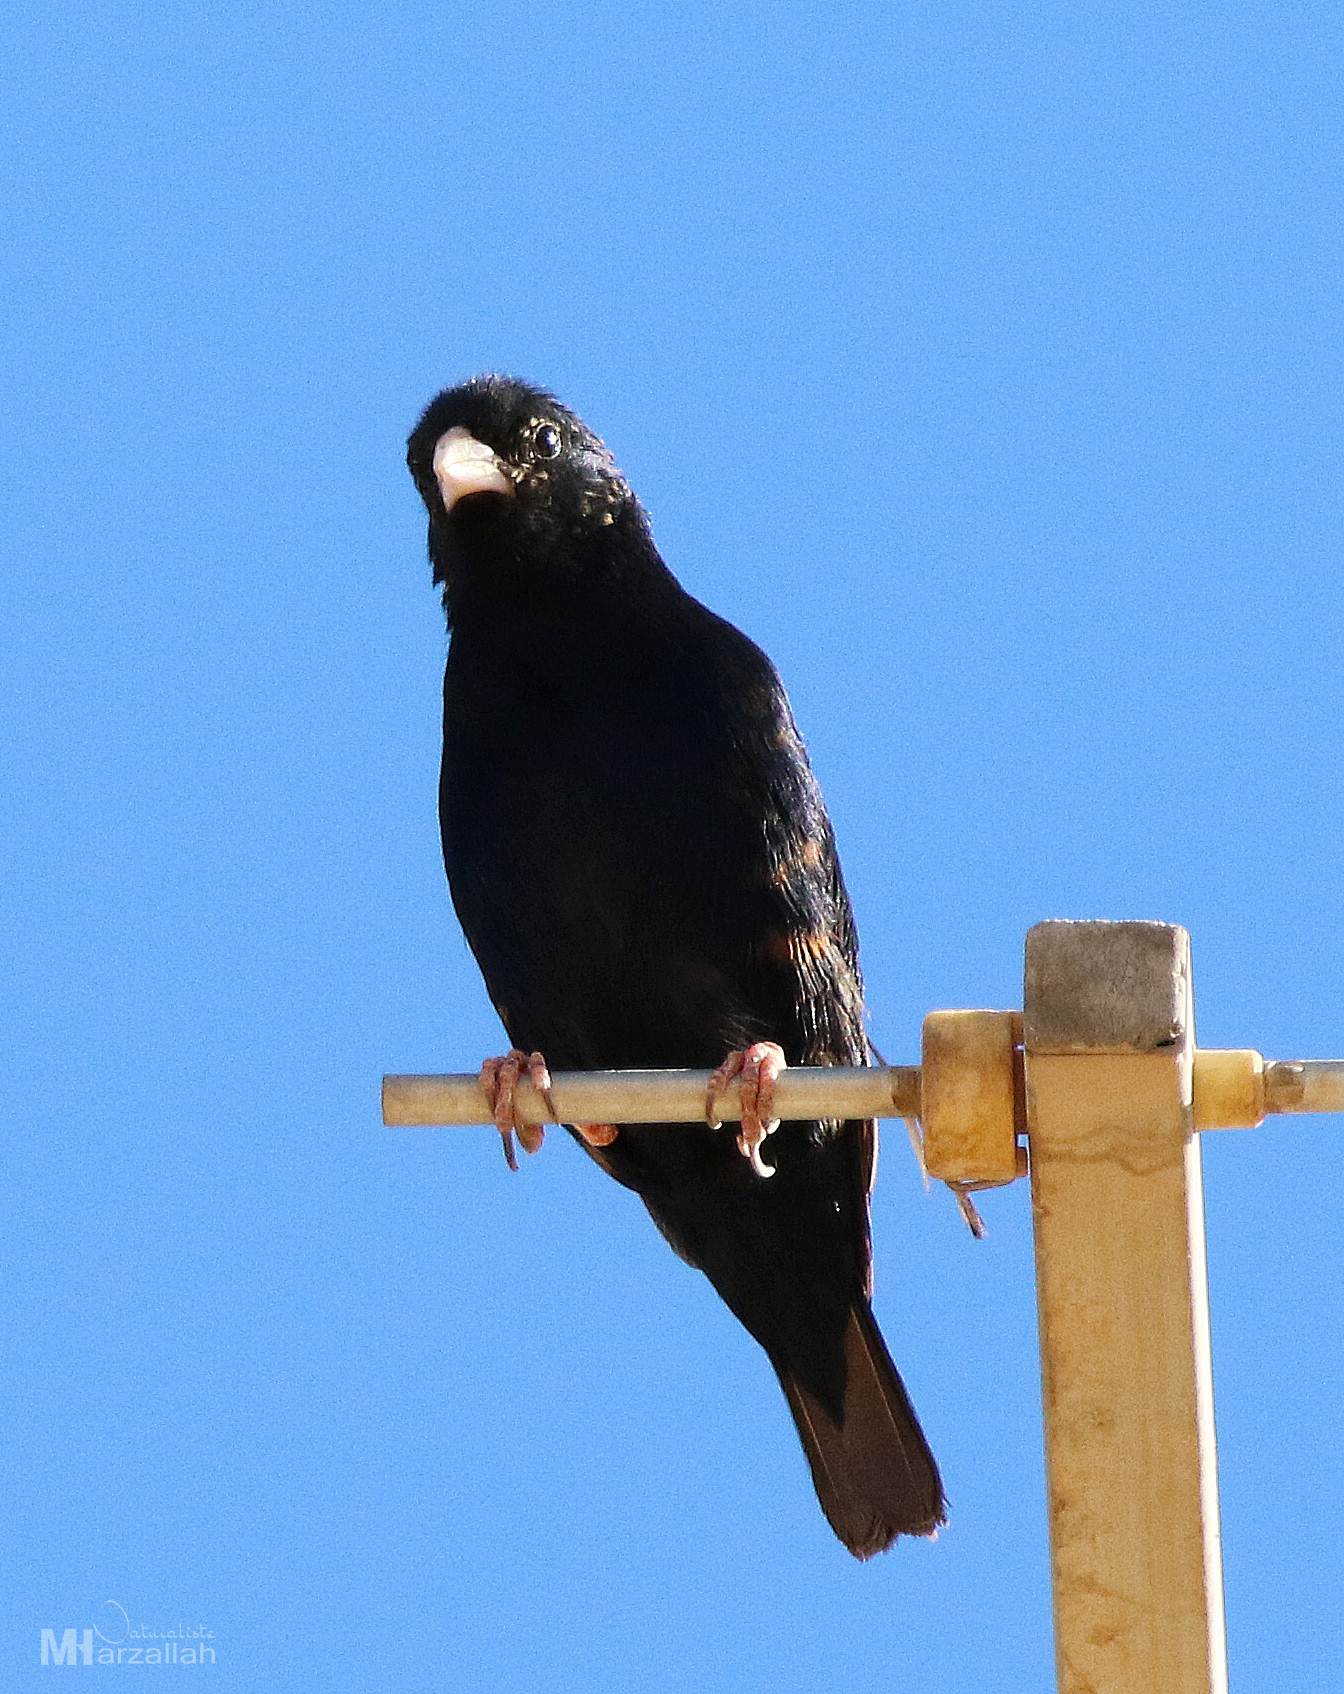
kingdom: Animalia
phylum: Chordata
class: Aves
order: Passeriformes
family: Viduidae
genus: Vidua
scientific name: Vidua chalybeata
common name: Village indigobird
